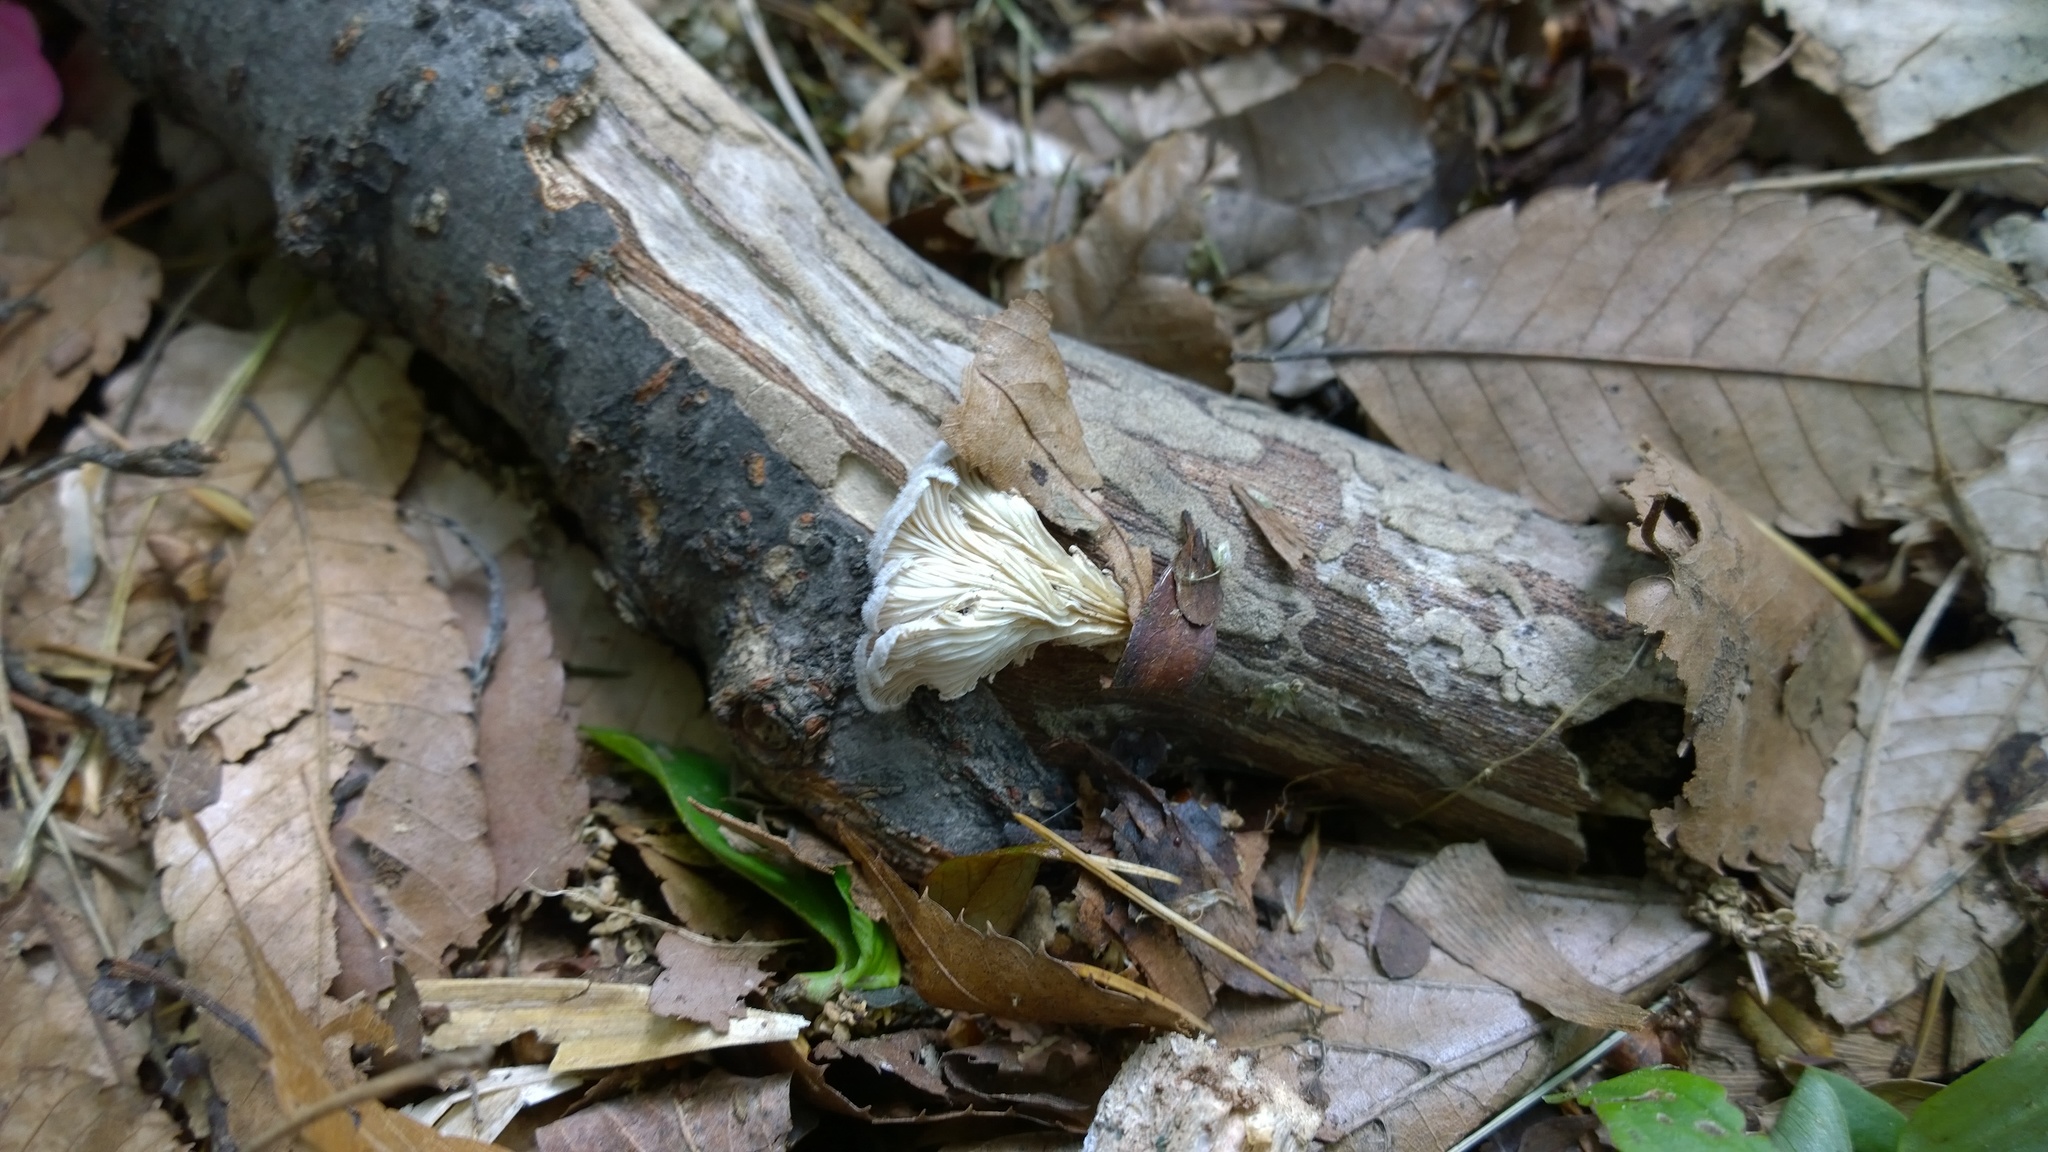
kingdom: Fungi
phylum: Basidiomycota
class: Agaricomycetes
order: Agaricales
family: Schizophyllaceae
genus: Schizophyllum
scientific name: Schizophyllum commune
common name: Common porecrust
